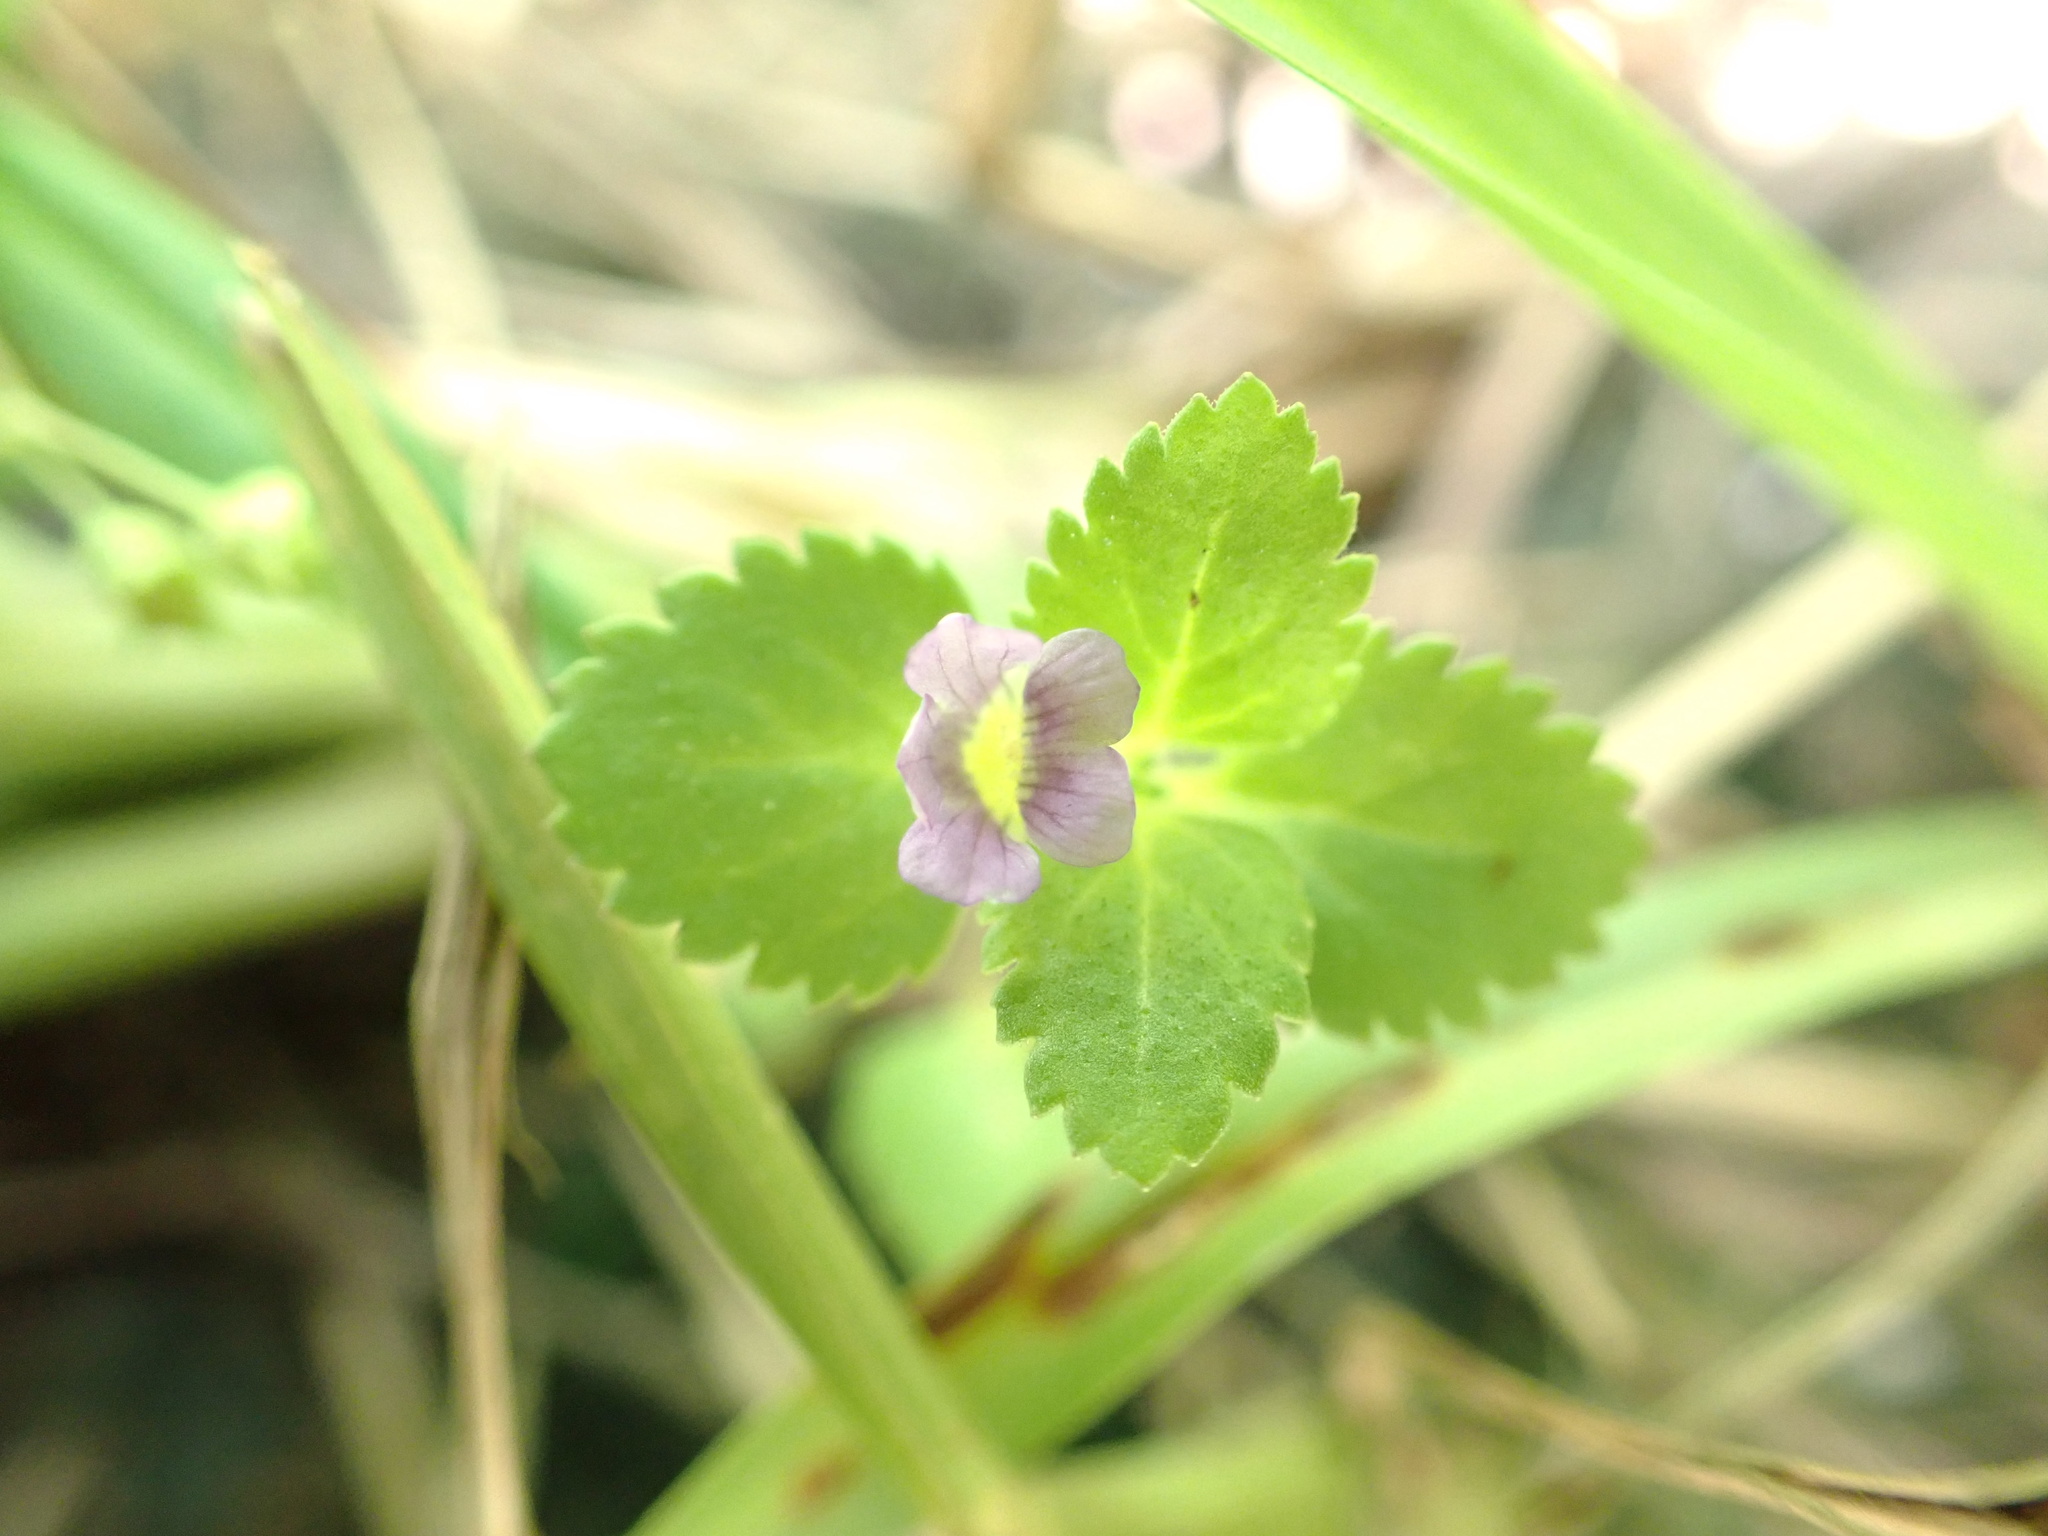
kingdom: Plantae
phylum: Tracheophyta
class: Magnoliopsida
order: Lamiales
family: Plantaginaceae
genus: Stemodia
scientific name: Stemodia verticillata
